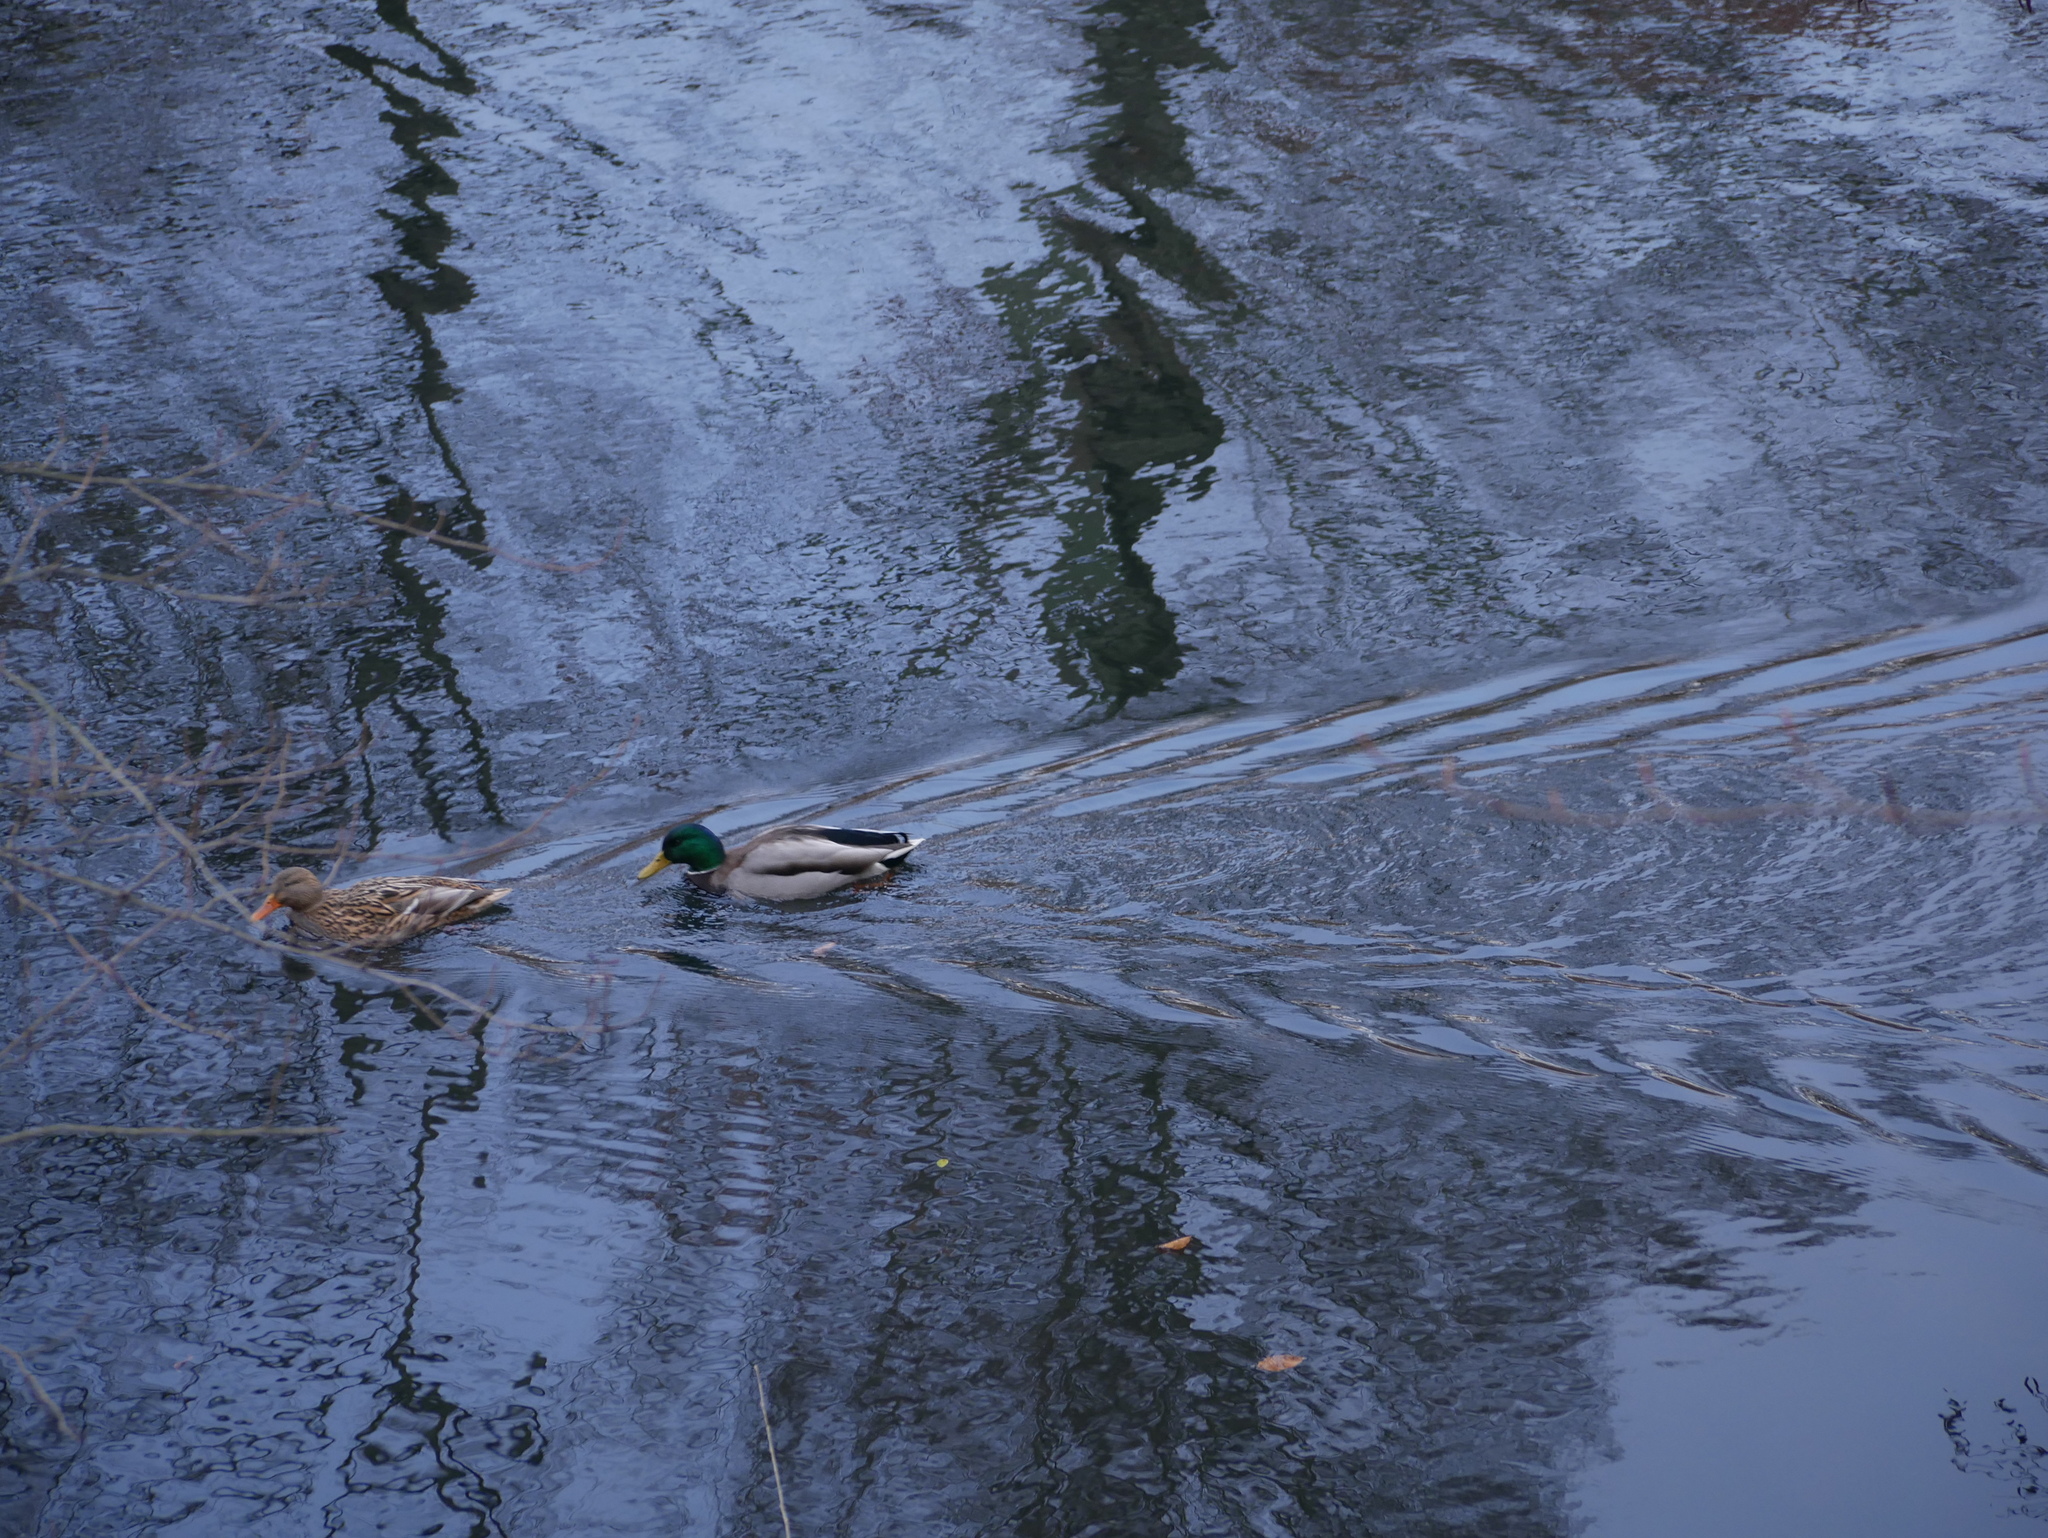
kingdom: Animalia
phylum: Chordata
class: Aves
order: Anseriformes
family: Anatidae
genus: Anas
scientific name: Anas platyrhynchos
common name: Mallard
